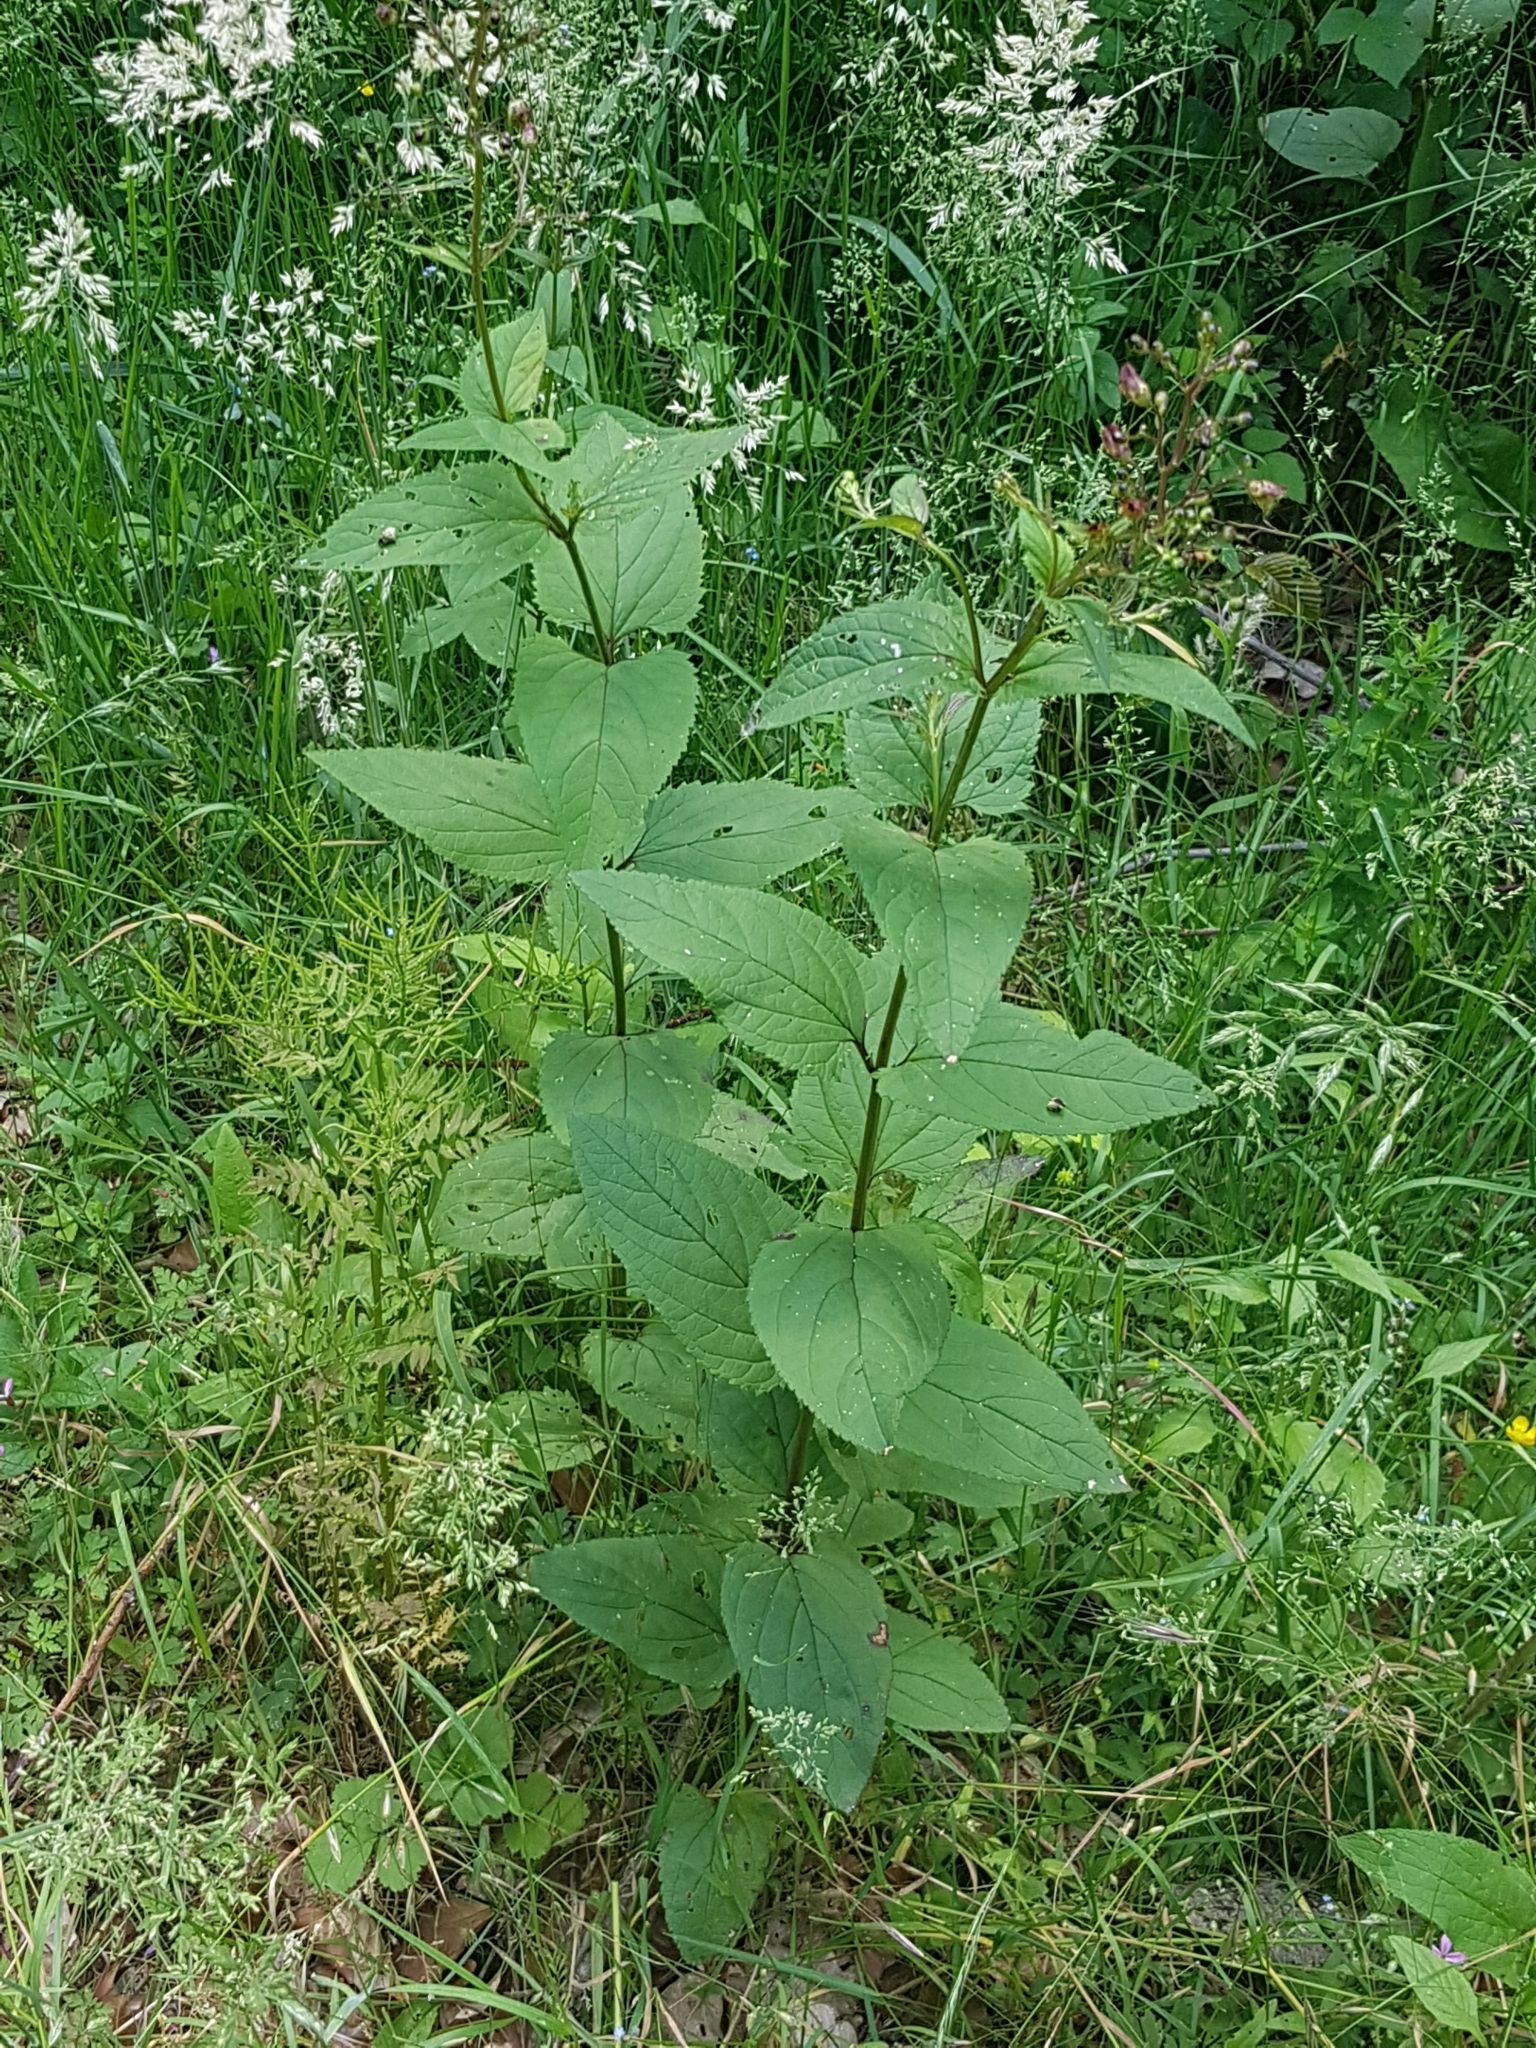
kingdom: Plantae
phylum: Tracheophyta
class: Magnoliopsida
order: Lamiales
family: Scrophulariaceae
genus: Scrophularia
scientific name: Scrophularia nodosa
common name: Common figwort
